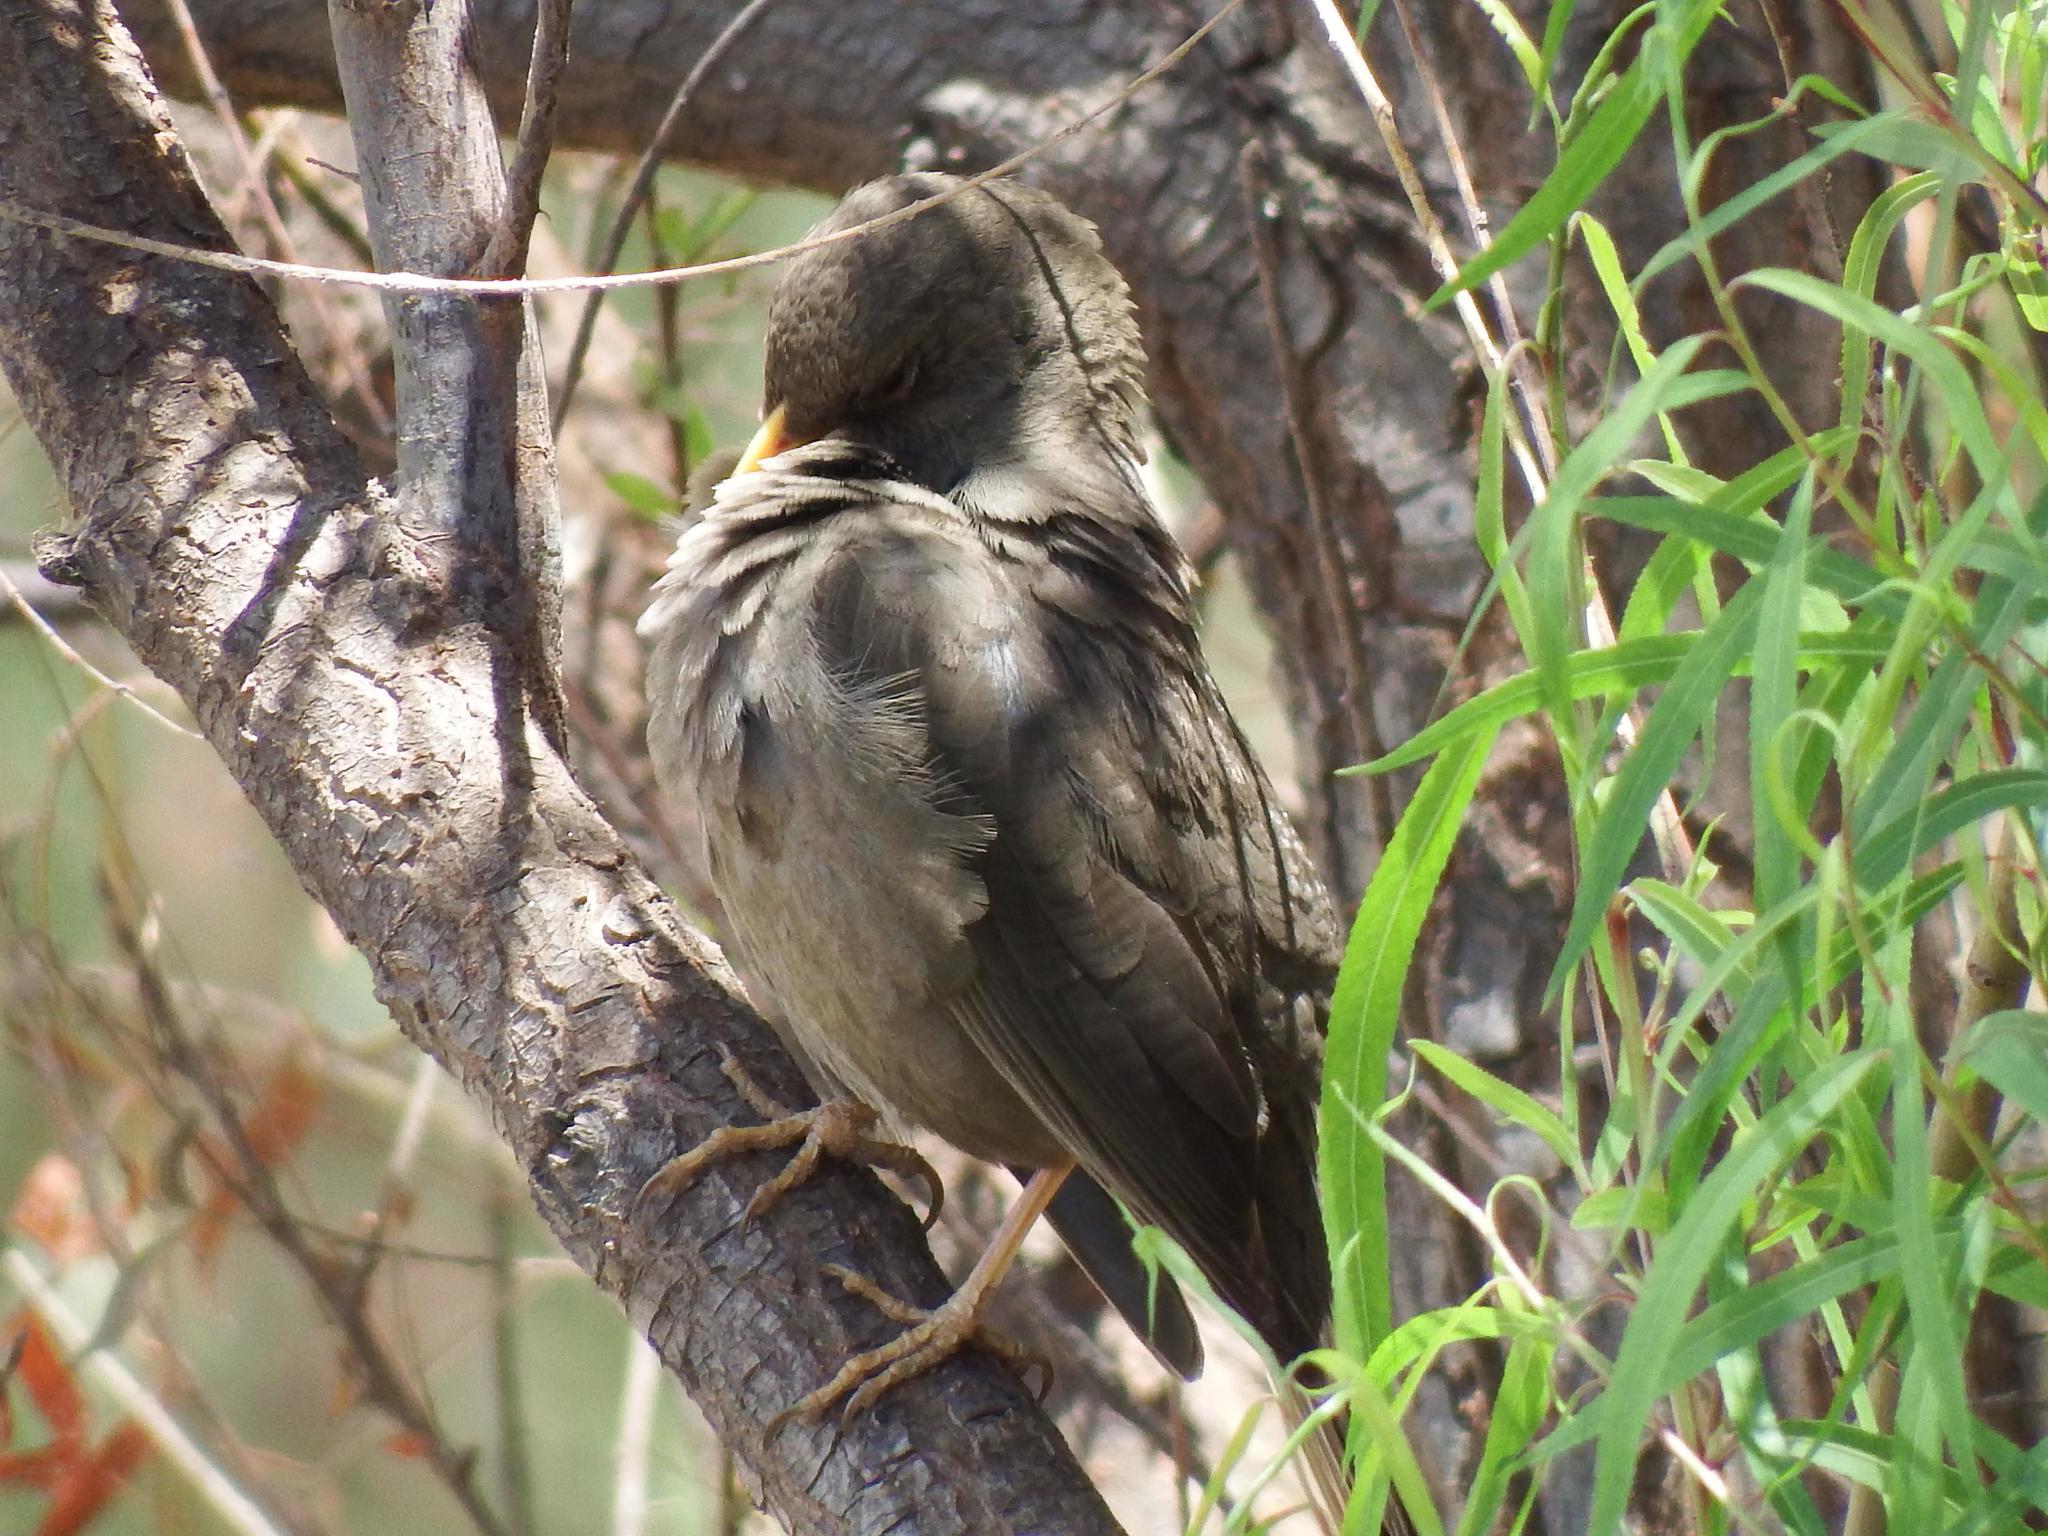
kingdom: Animalia
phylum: Chordata
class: Aves
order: Passeriformes
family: Turdidae
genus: Turdus
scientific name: Turdus chiguanco
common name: Chiguanco thrush
